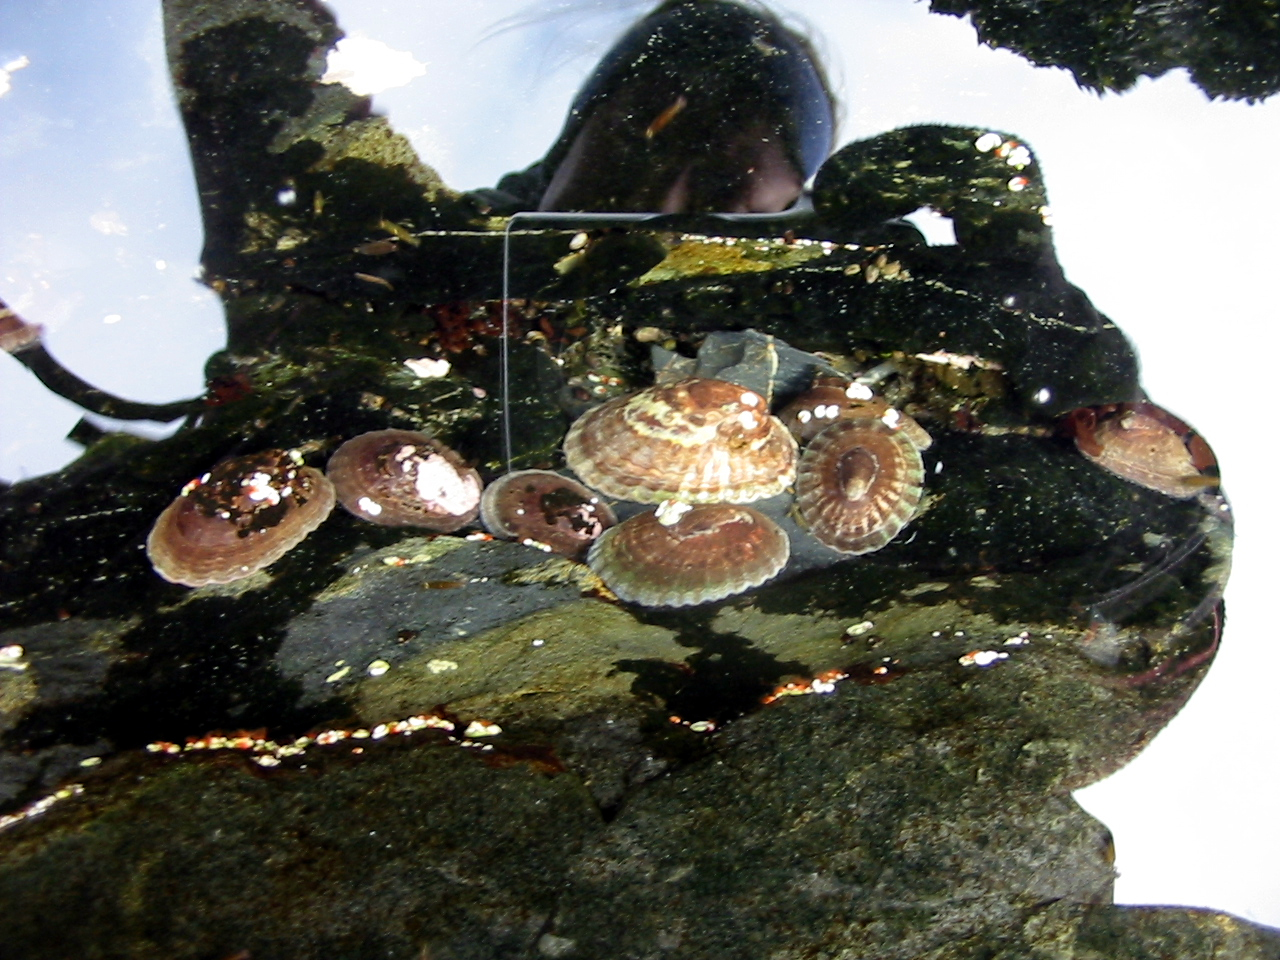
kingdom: Animalia
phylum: Mollusca
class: Gastropoda
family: Nacellidae
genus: Nacella
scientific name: Nacella concinna
